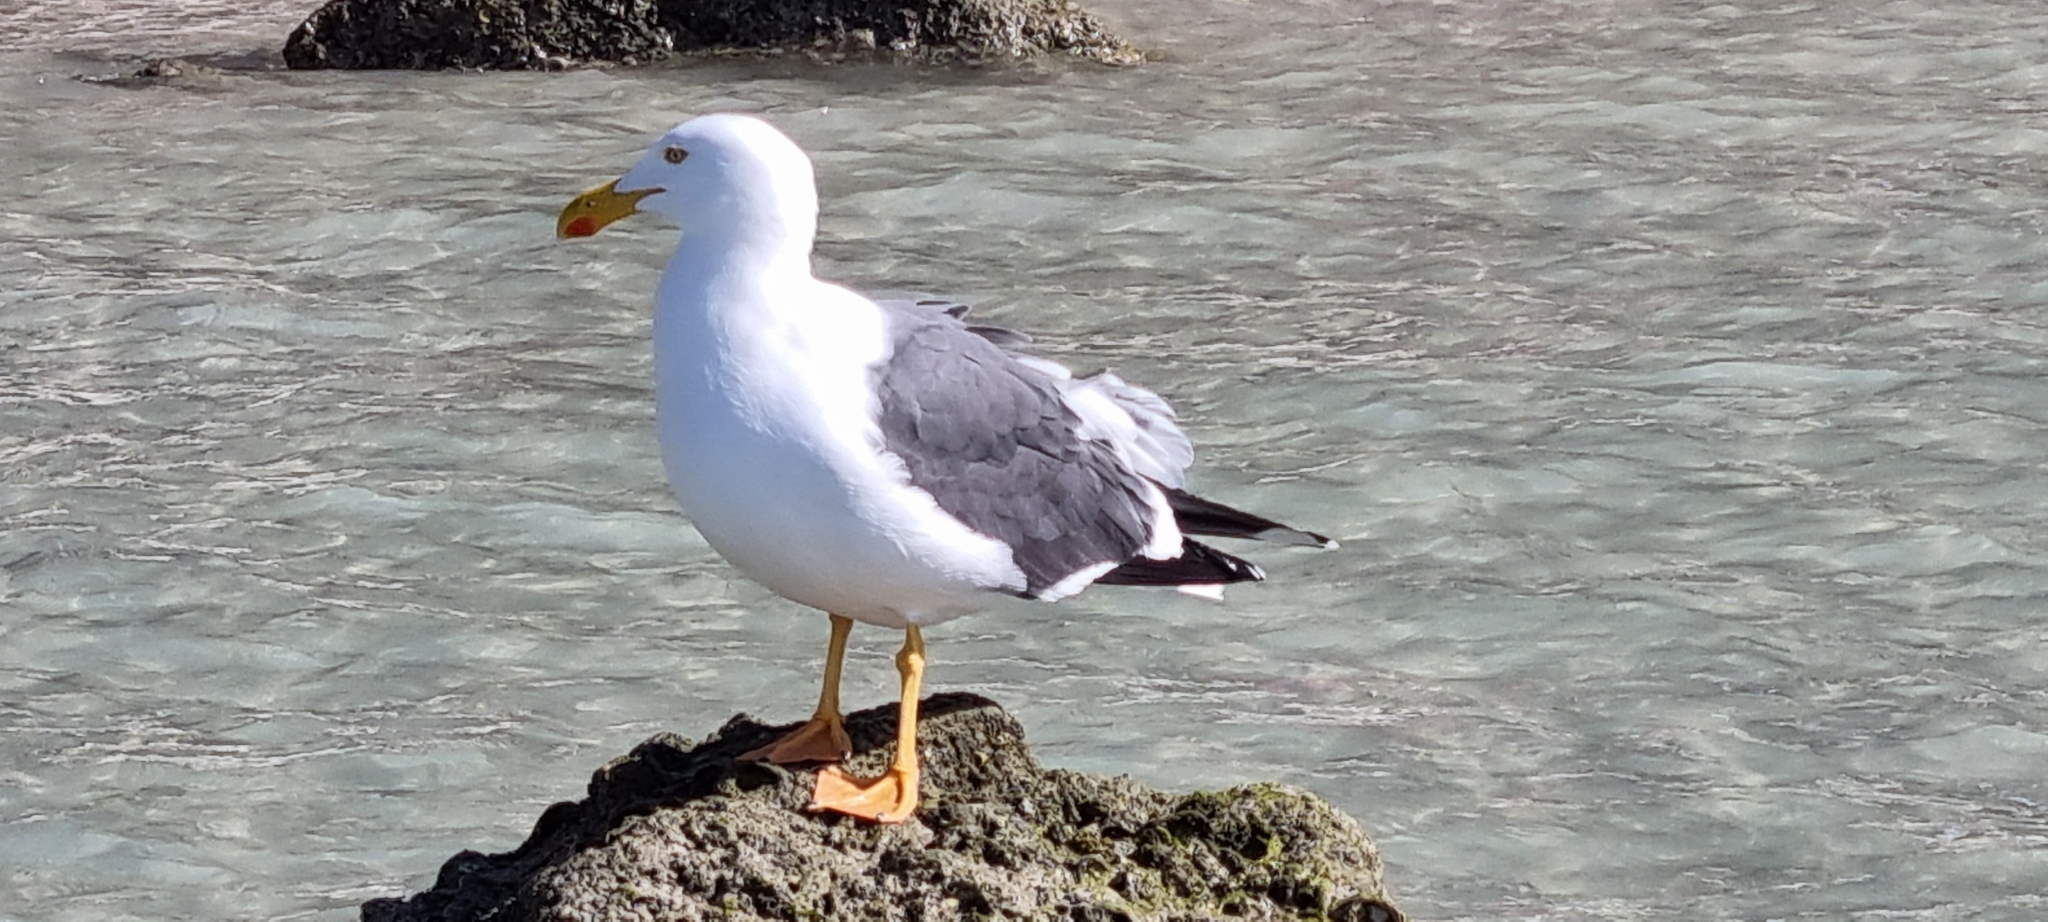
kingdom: Animalia
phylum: Chordata
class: Aves
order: Charadriiformes
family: Laridae
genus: Larus
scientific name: Larus livens
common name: Yellow-footed gull
